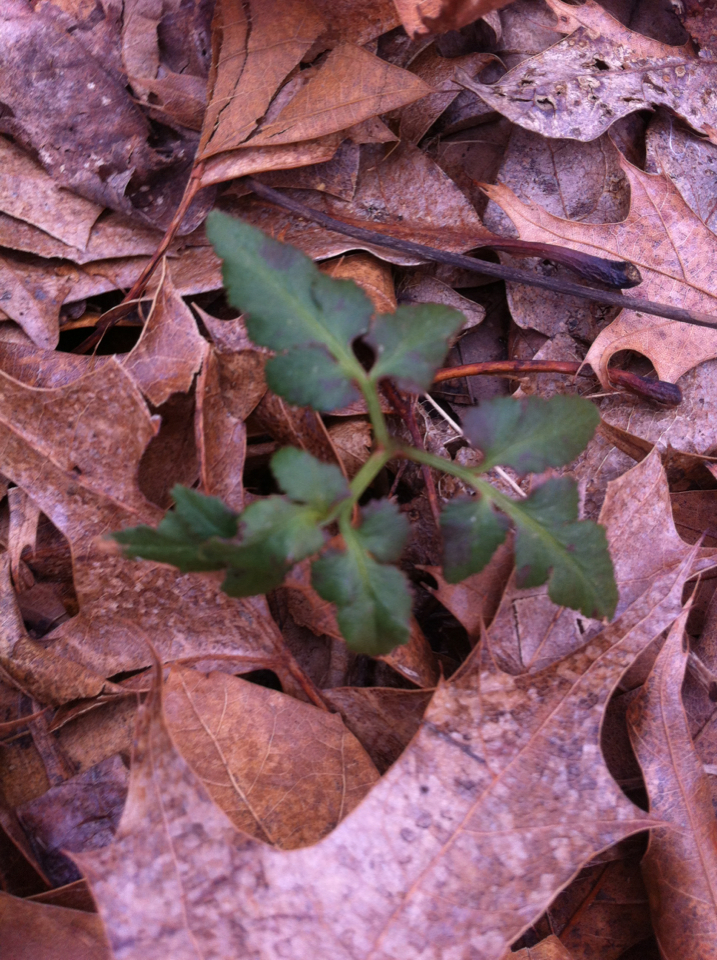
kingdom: Plantae
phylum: Tracheophyta
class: Polypodiopsida
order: Ophioglossales
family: Ophioglossaceae
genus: Sceptridium
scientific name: Sceptridium dissectum
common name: Cut-leaved grapefern
